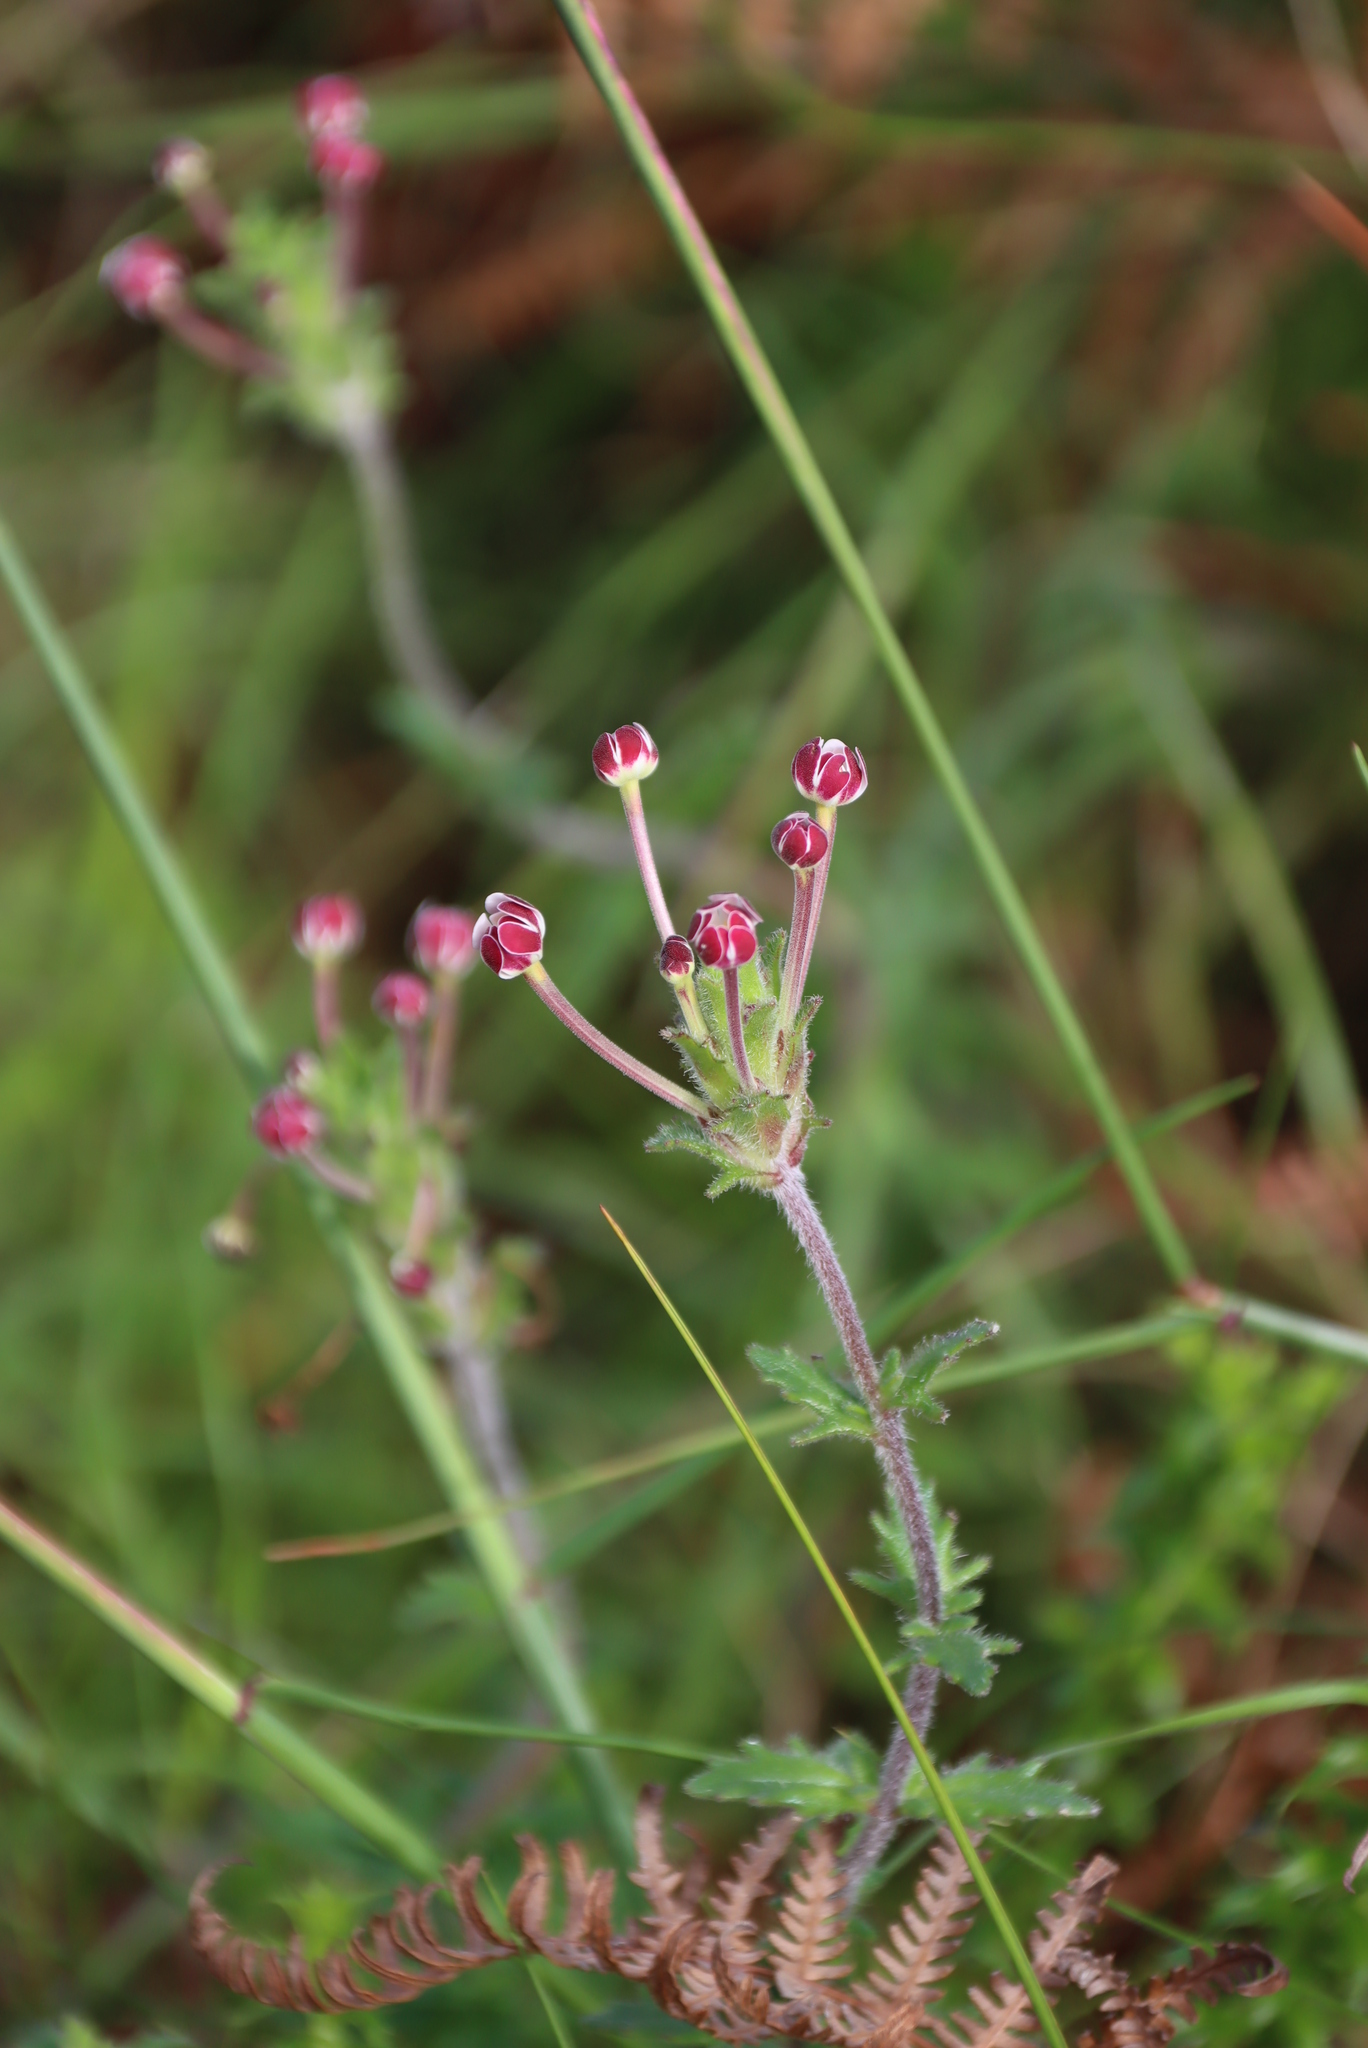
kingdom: Plantae
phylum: Tracheophyta
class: Magnoliopsida
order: Lamiales
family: Scrophulariaceae
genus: Zaluzianskya
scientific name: Zaluzianskya capensis
